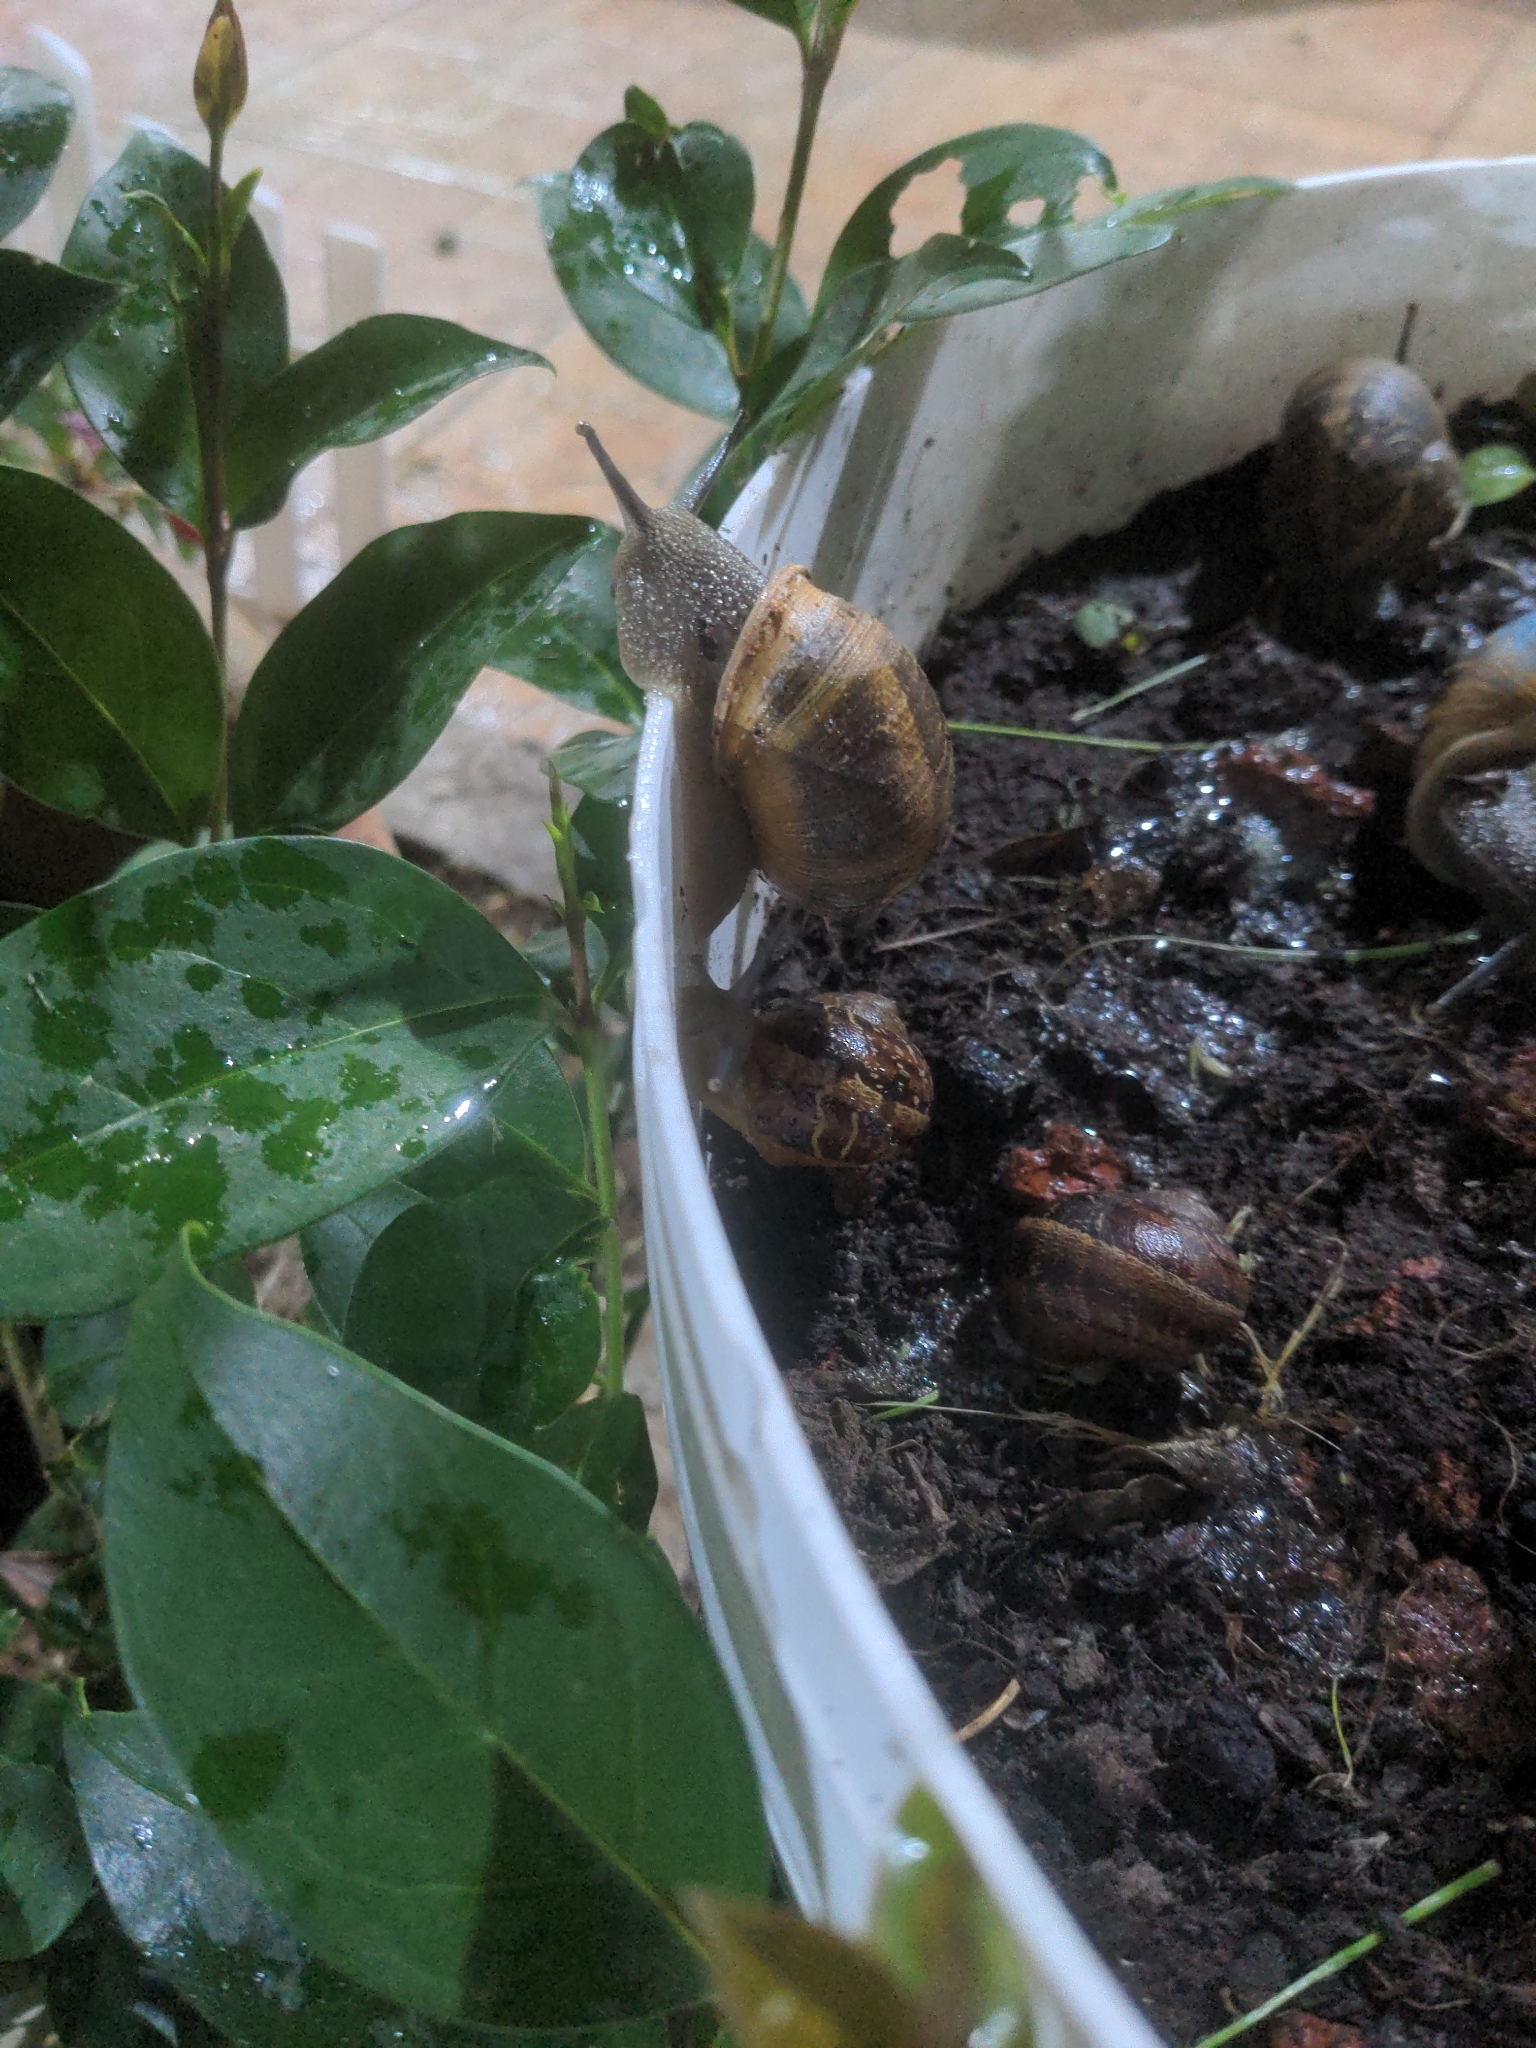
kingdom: Animalia
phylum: Mollusca
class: Gastropoda
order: Stylommatophora
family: Helicidae
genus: Cornu
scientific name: Cornu aspersum
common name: Brown garden snail
